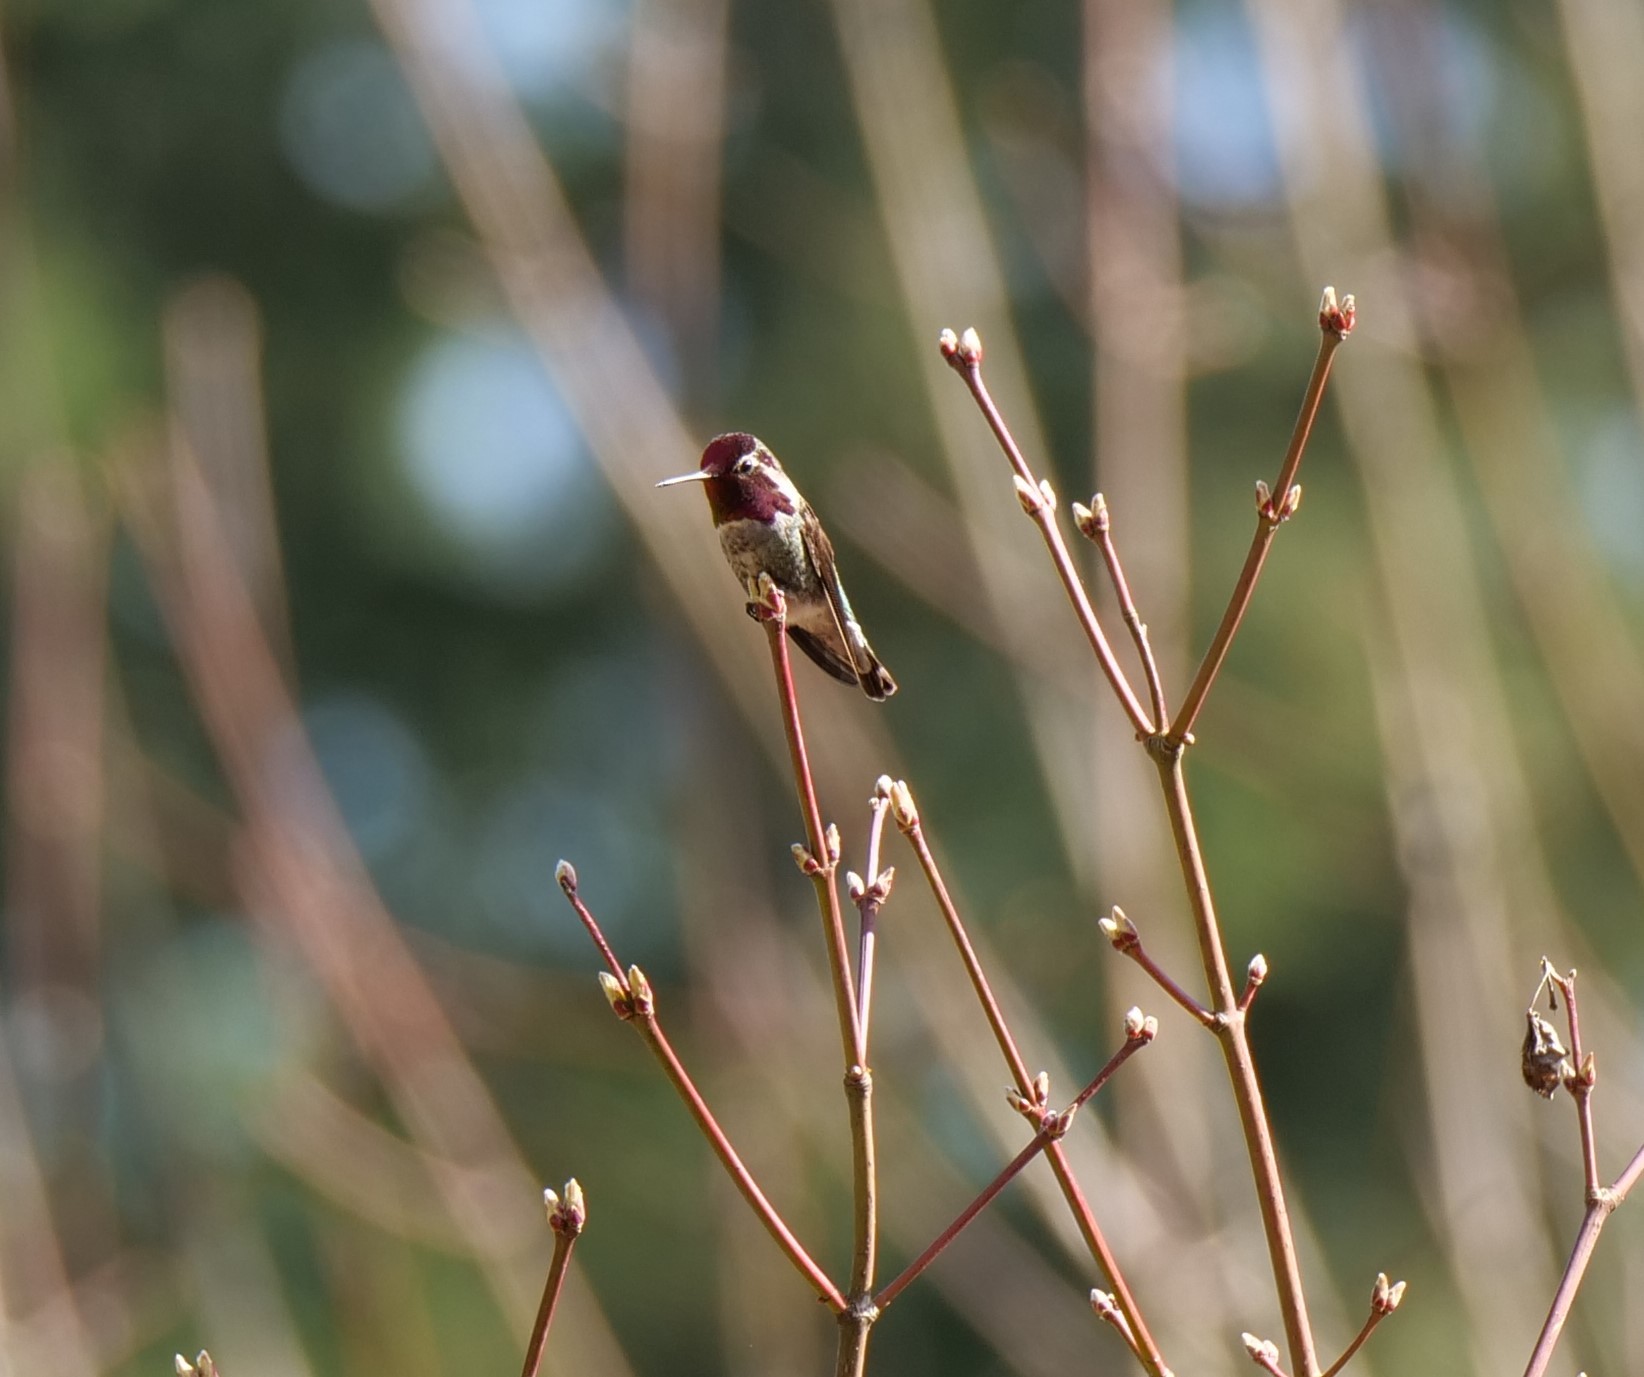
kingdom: Animalia
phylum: Chordata
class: Aves
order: Apodiformes
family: Trochilidae
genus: Calypte
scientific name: Calypte anna
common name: Anna's hummingbird
